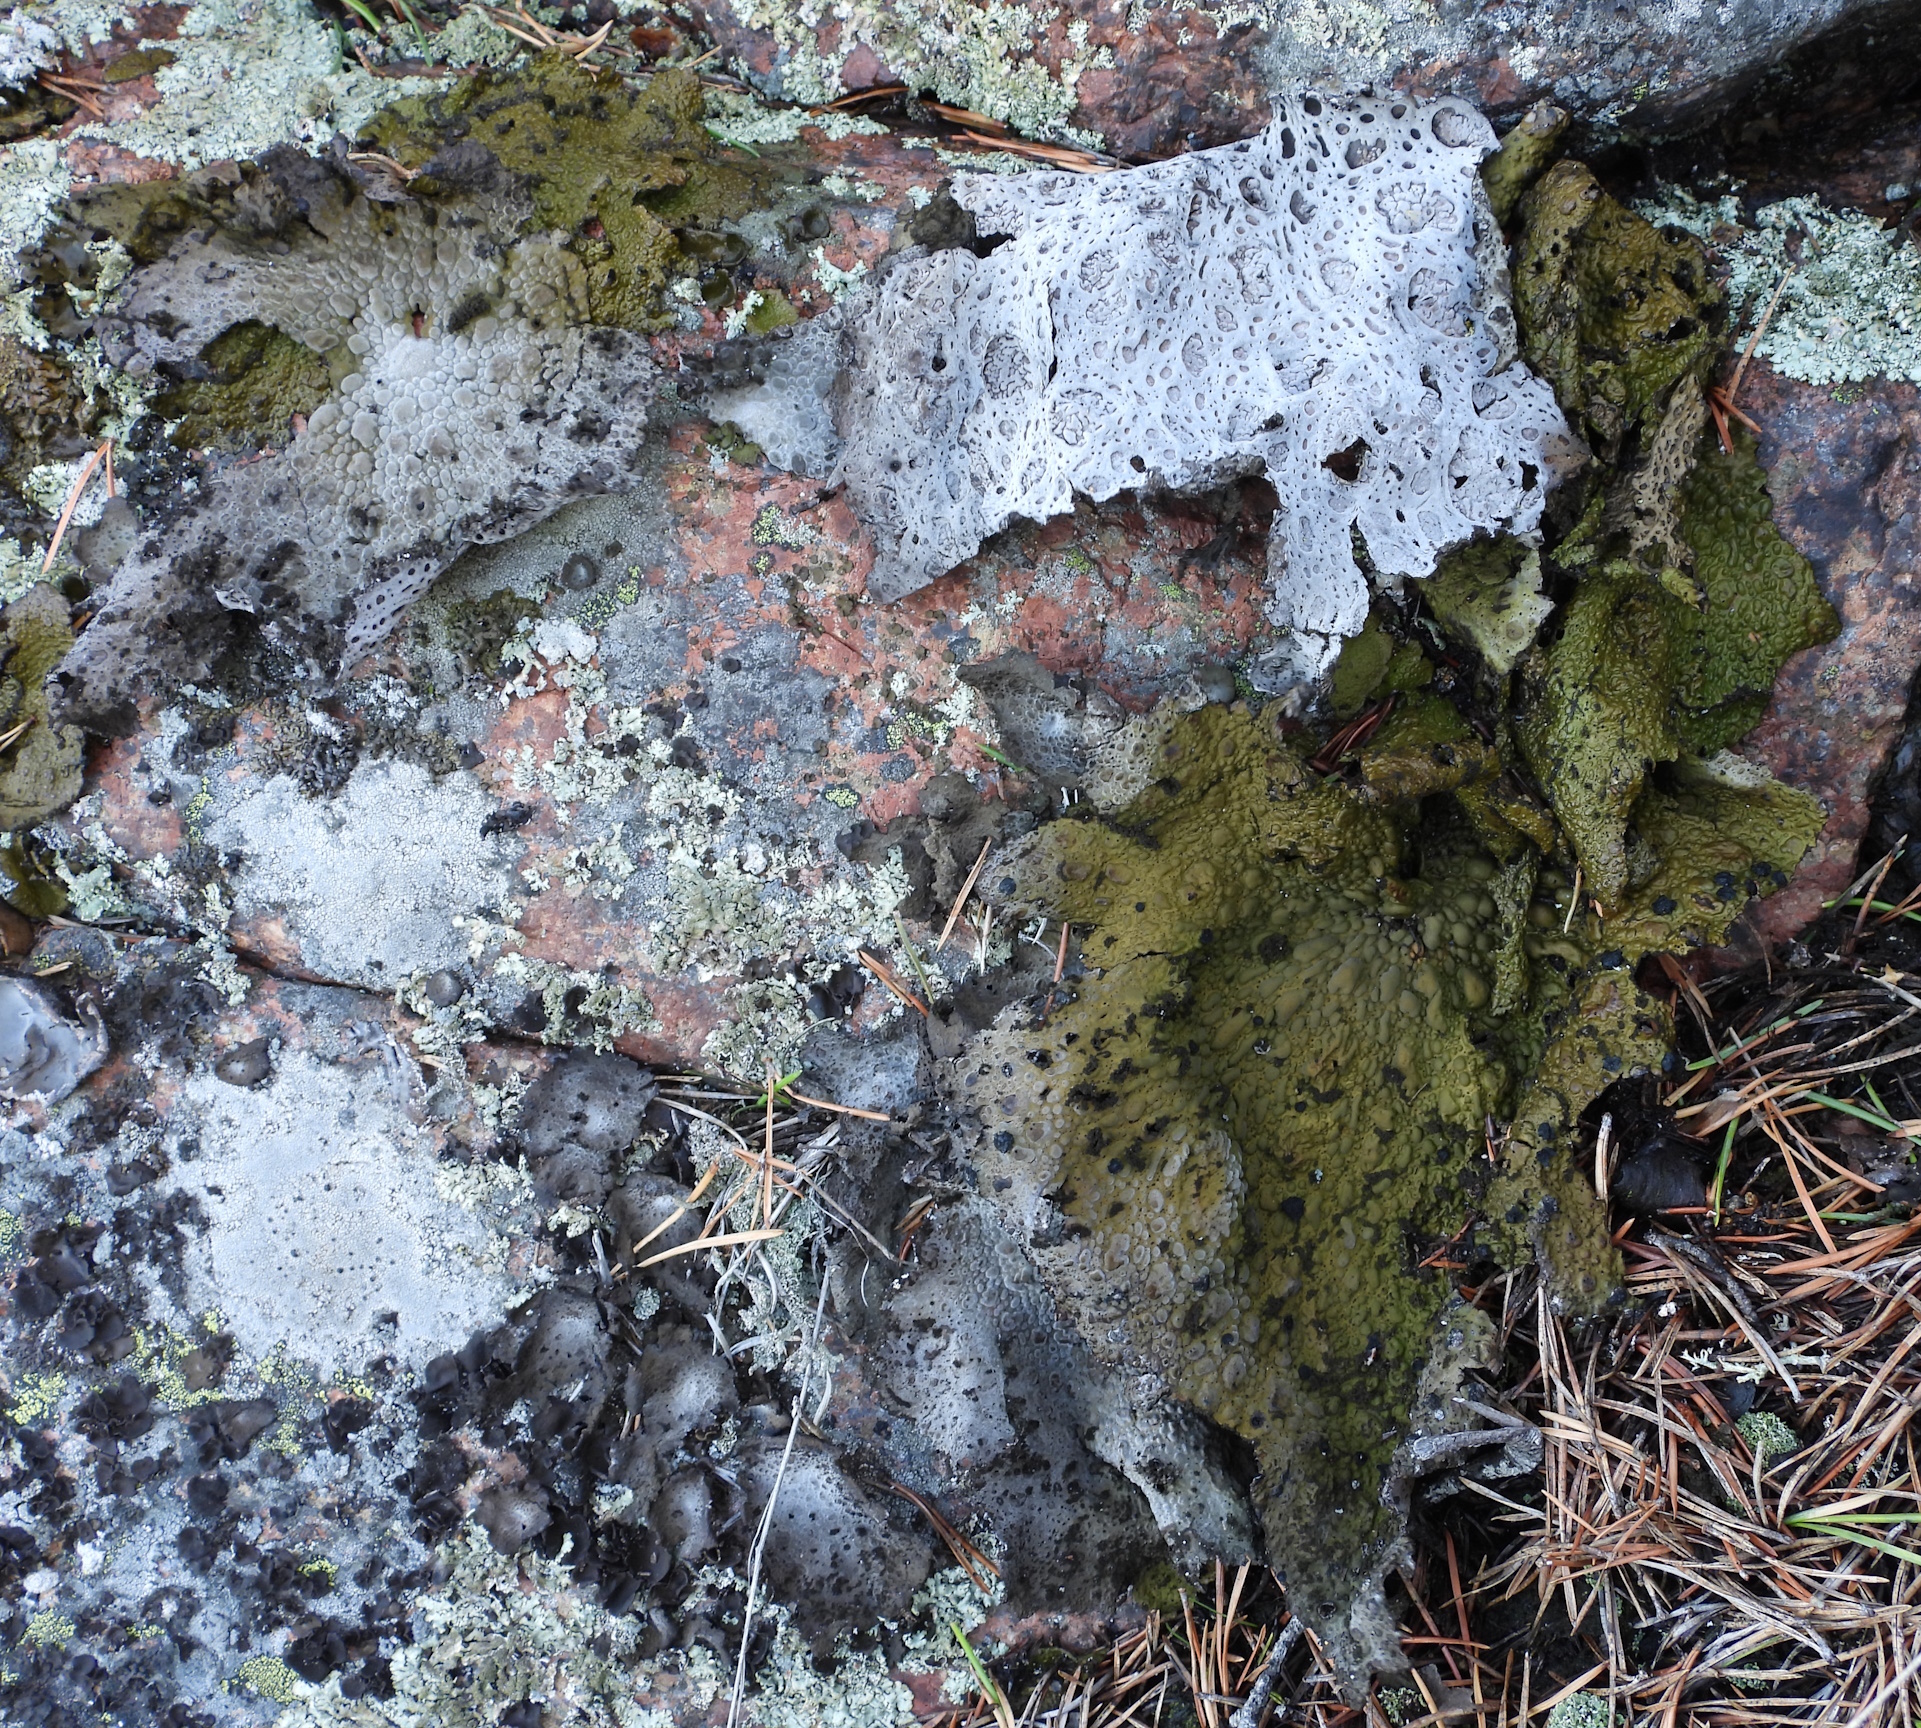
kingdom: Fungi
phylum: Ascomycota
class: Lecanoromycetes
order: Umbilicariales
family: Umbilicariaceae
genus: Lasallia
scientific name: Lasallia pustulata
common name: Blistered toadskin lichen
